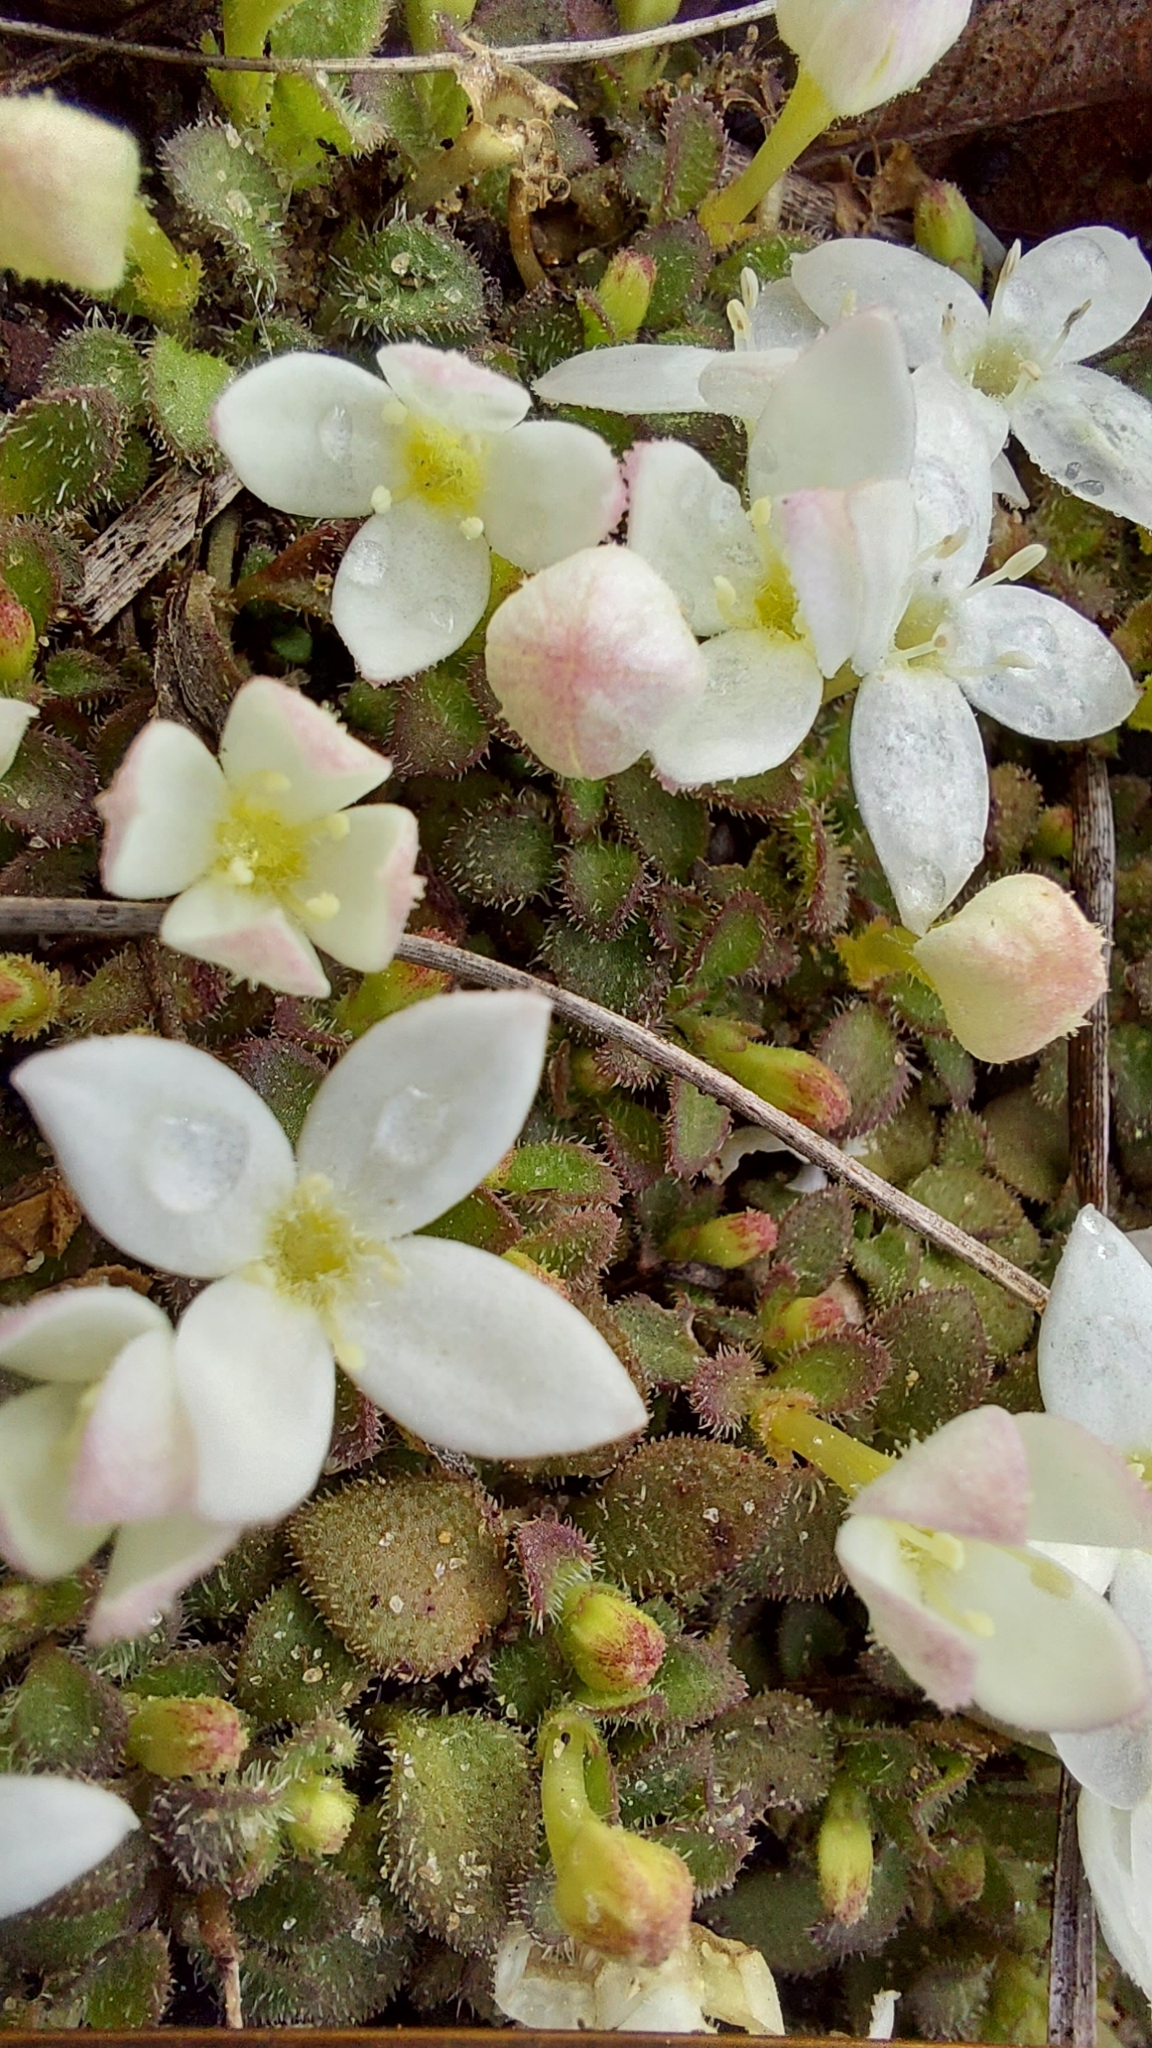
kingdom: Plantae
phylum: Tracheophyta
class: Magnoliopsida
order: Gentianales
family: Rubiaceae
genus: Houstonia
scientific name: Houstonia procumbens
